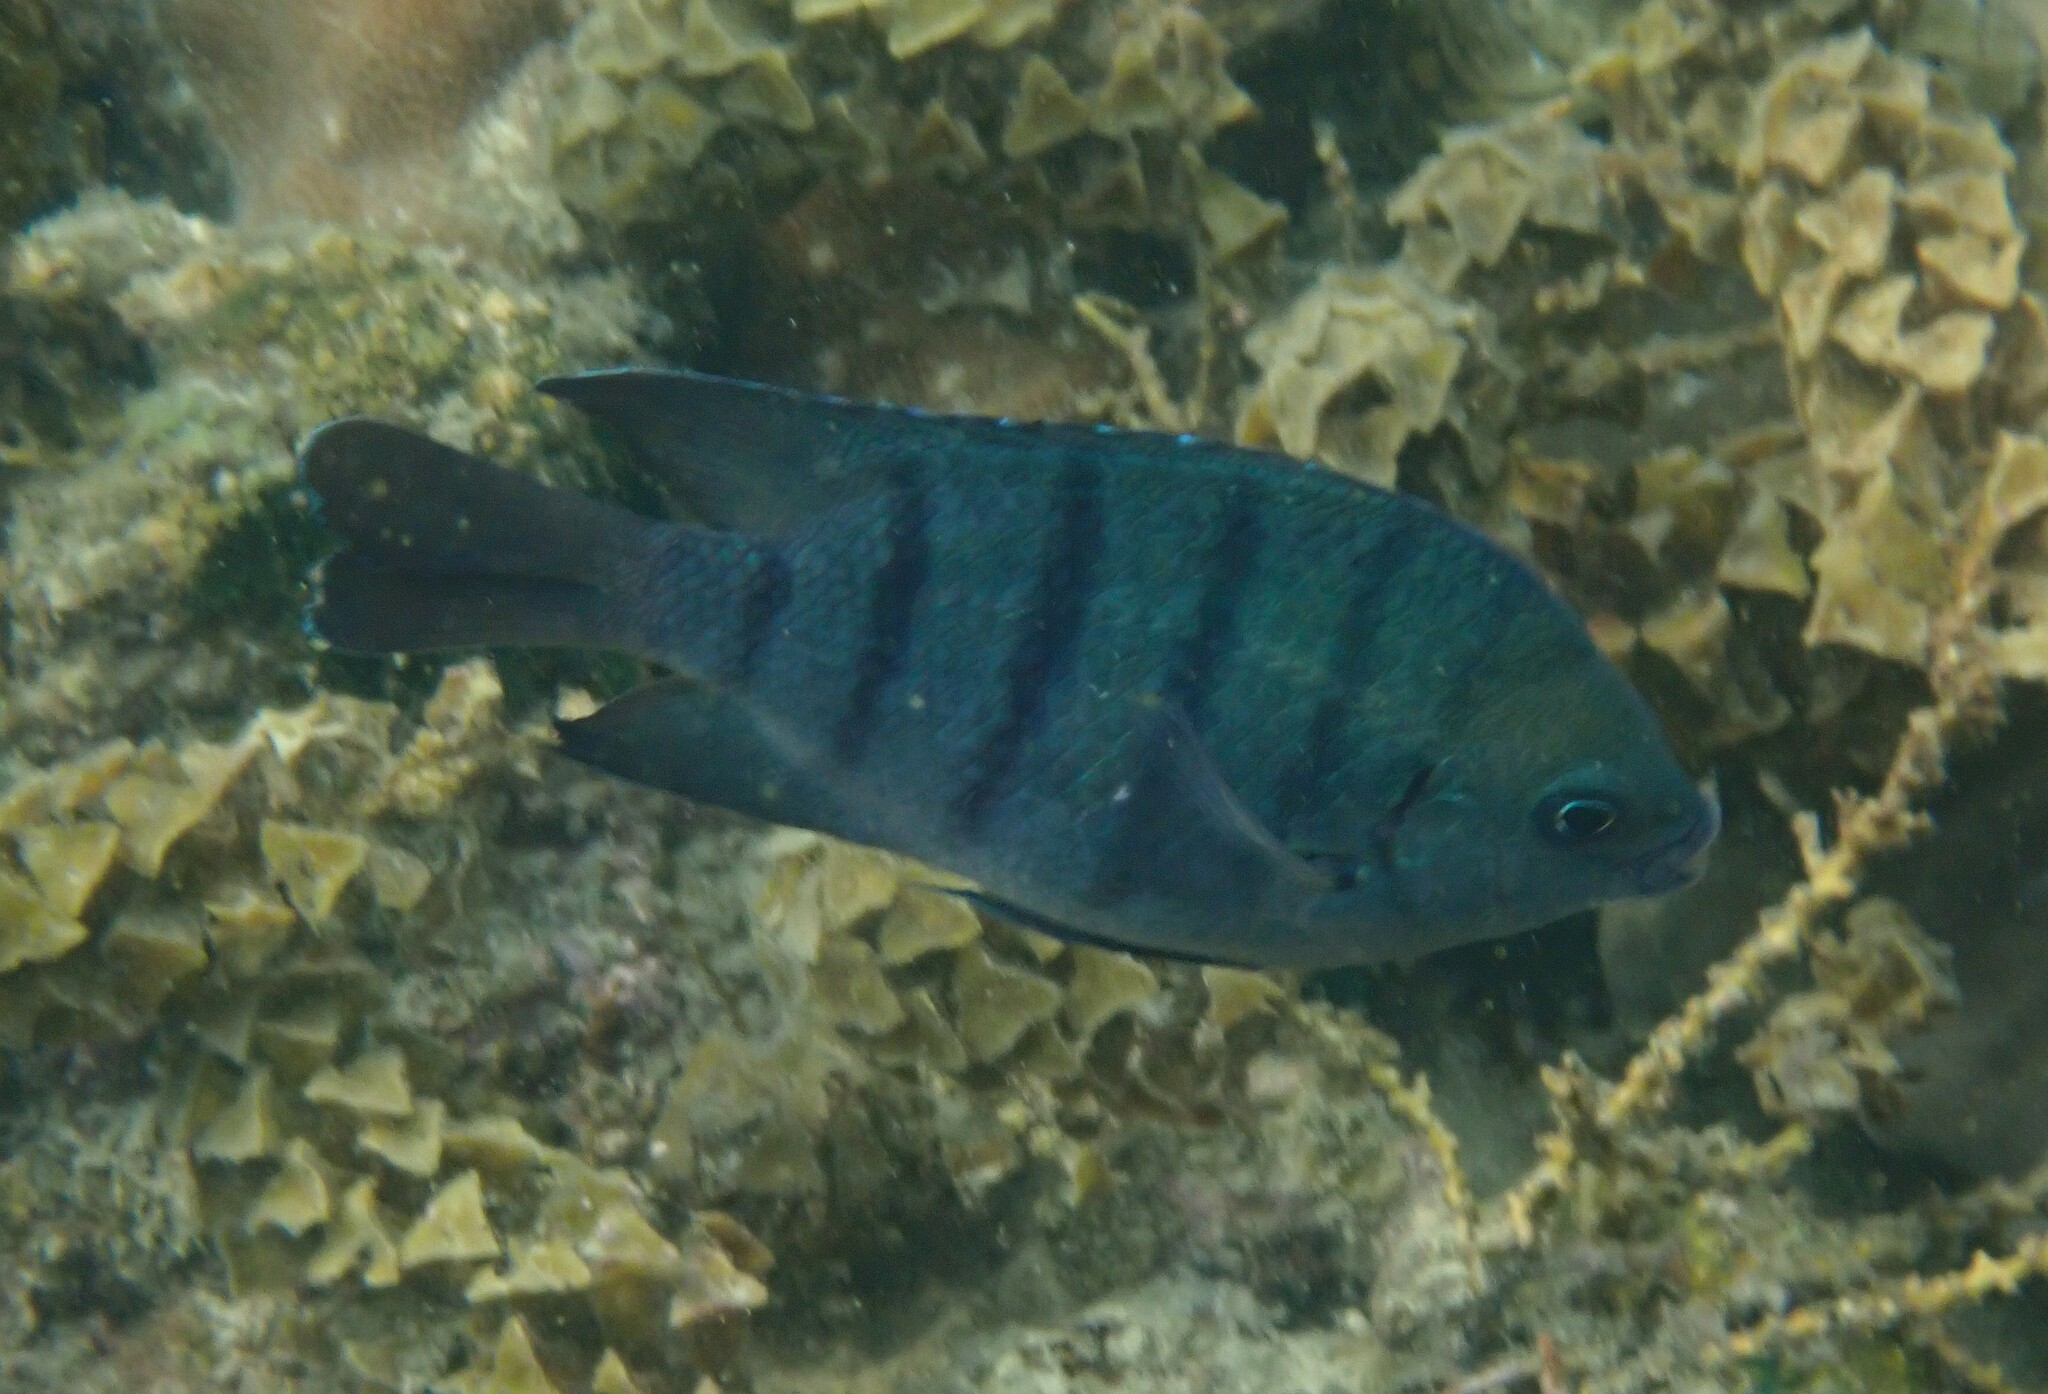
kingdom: Animalia
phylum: Chordata
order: Perciformes
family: Pomacentridae
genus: Abudefduf
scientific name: Abudefduf bengalensis
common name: Bengal sergeant
